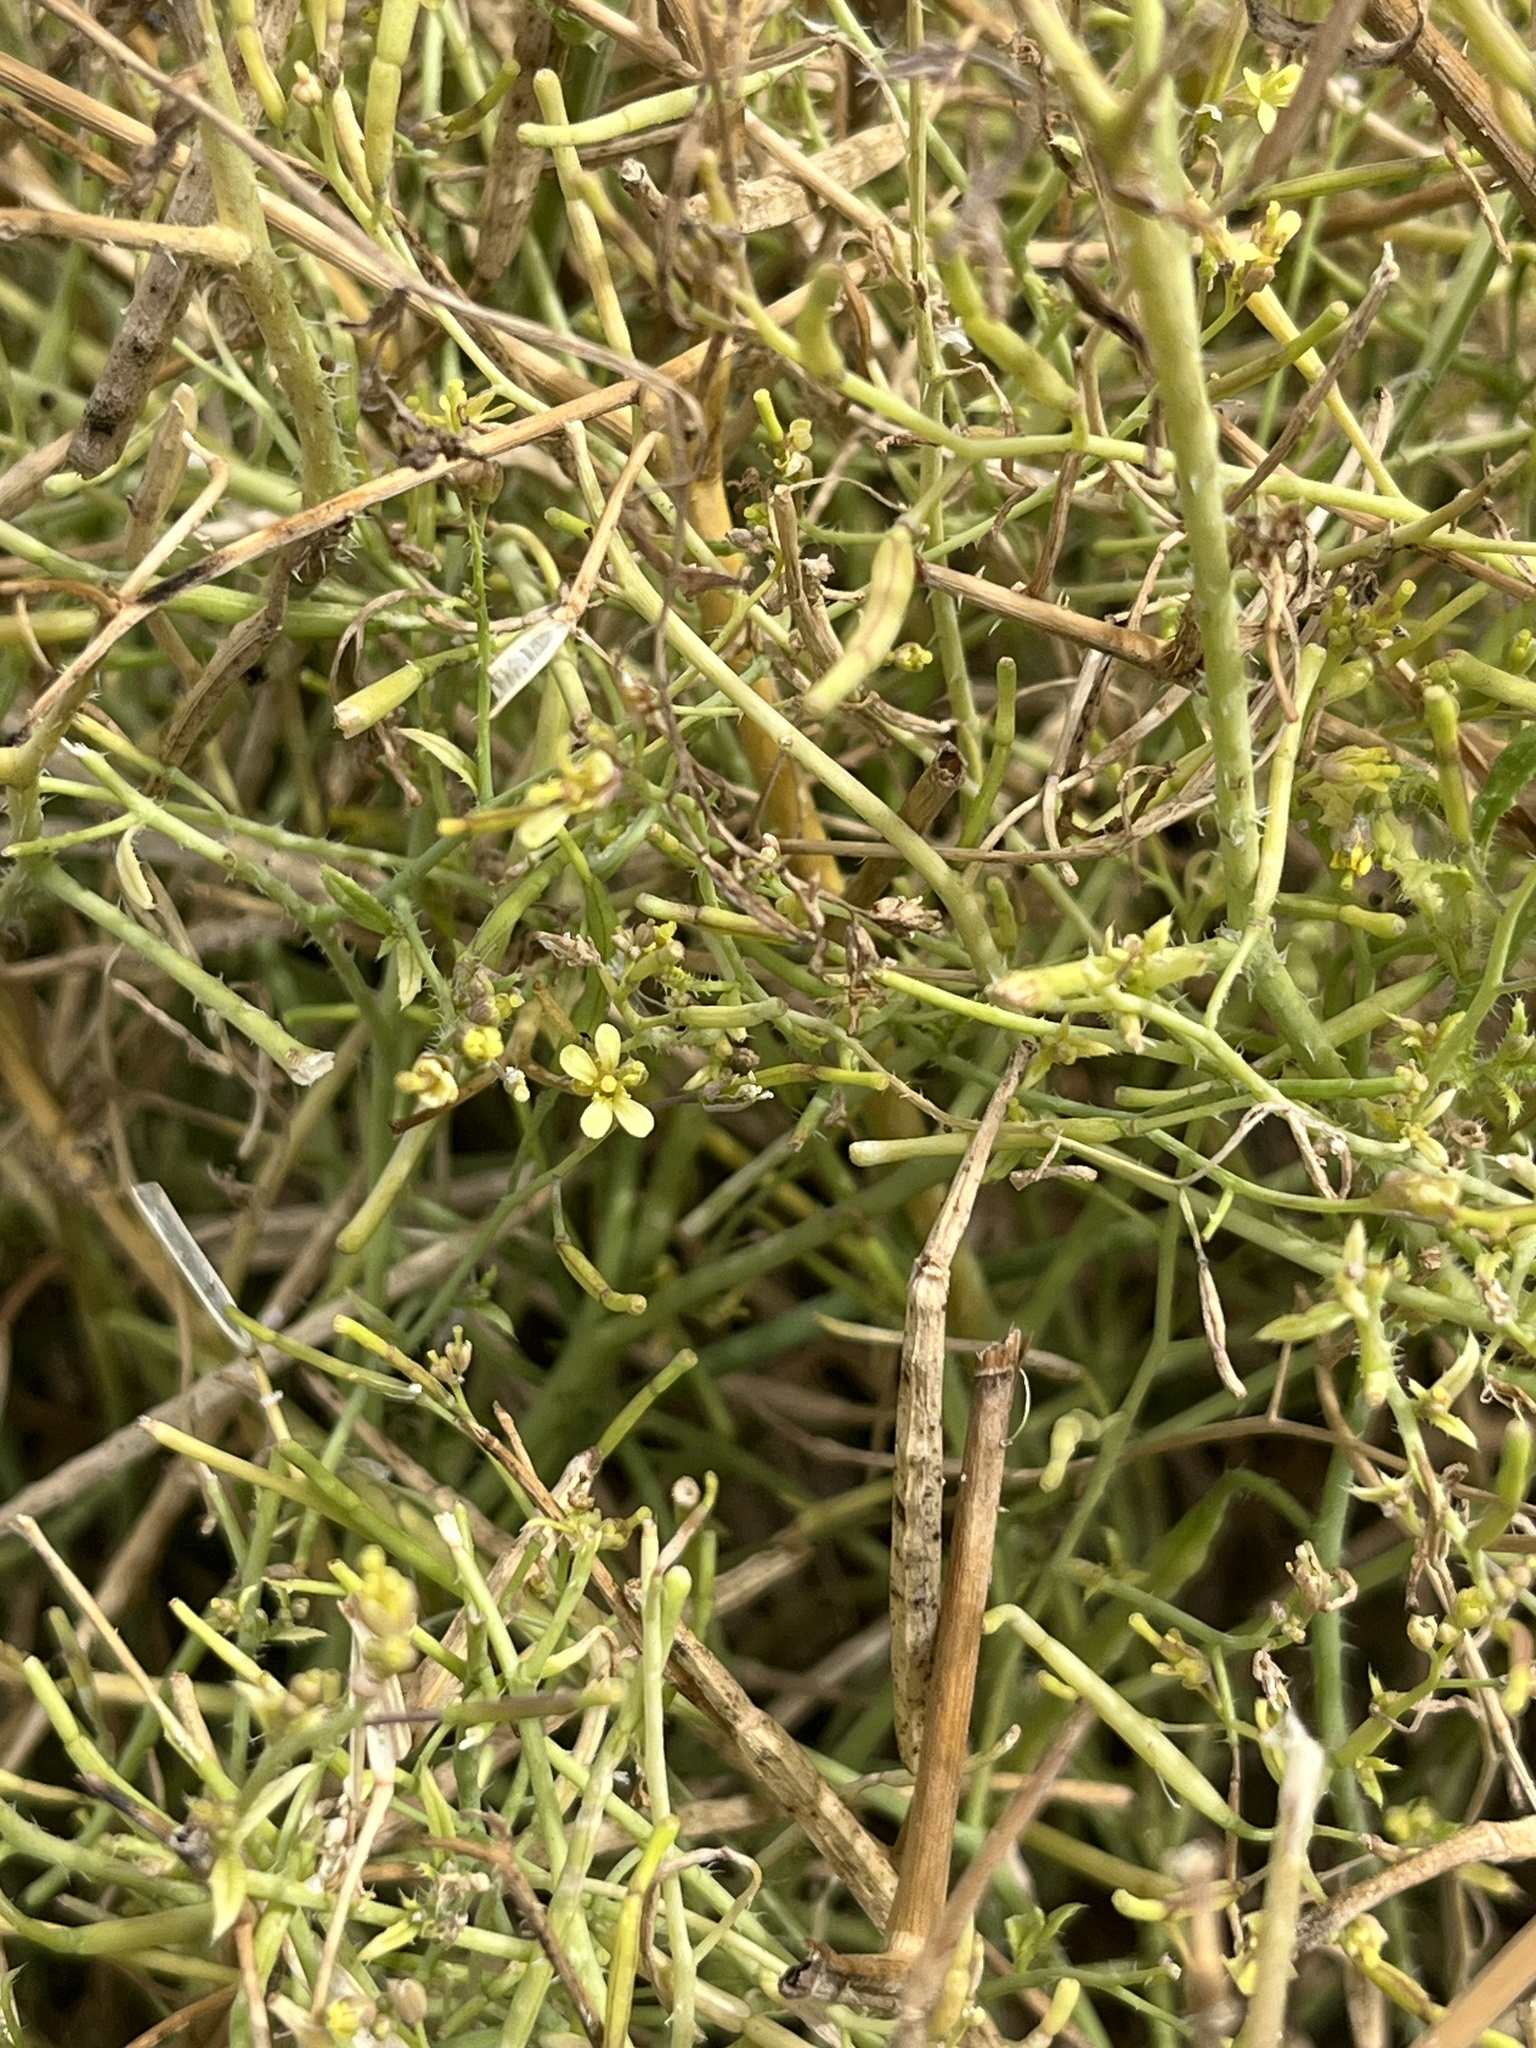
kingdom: Plantae
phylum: Tracheophyta
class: Magnoliopsida
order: Brassicales
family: Brassicaceae
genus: Brassica
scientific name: Brassica tournefortii
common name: Pale cabbage
